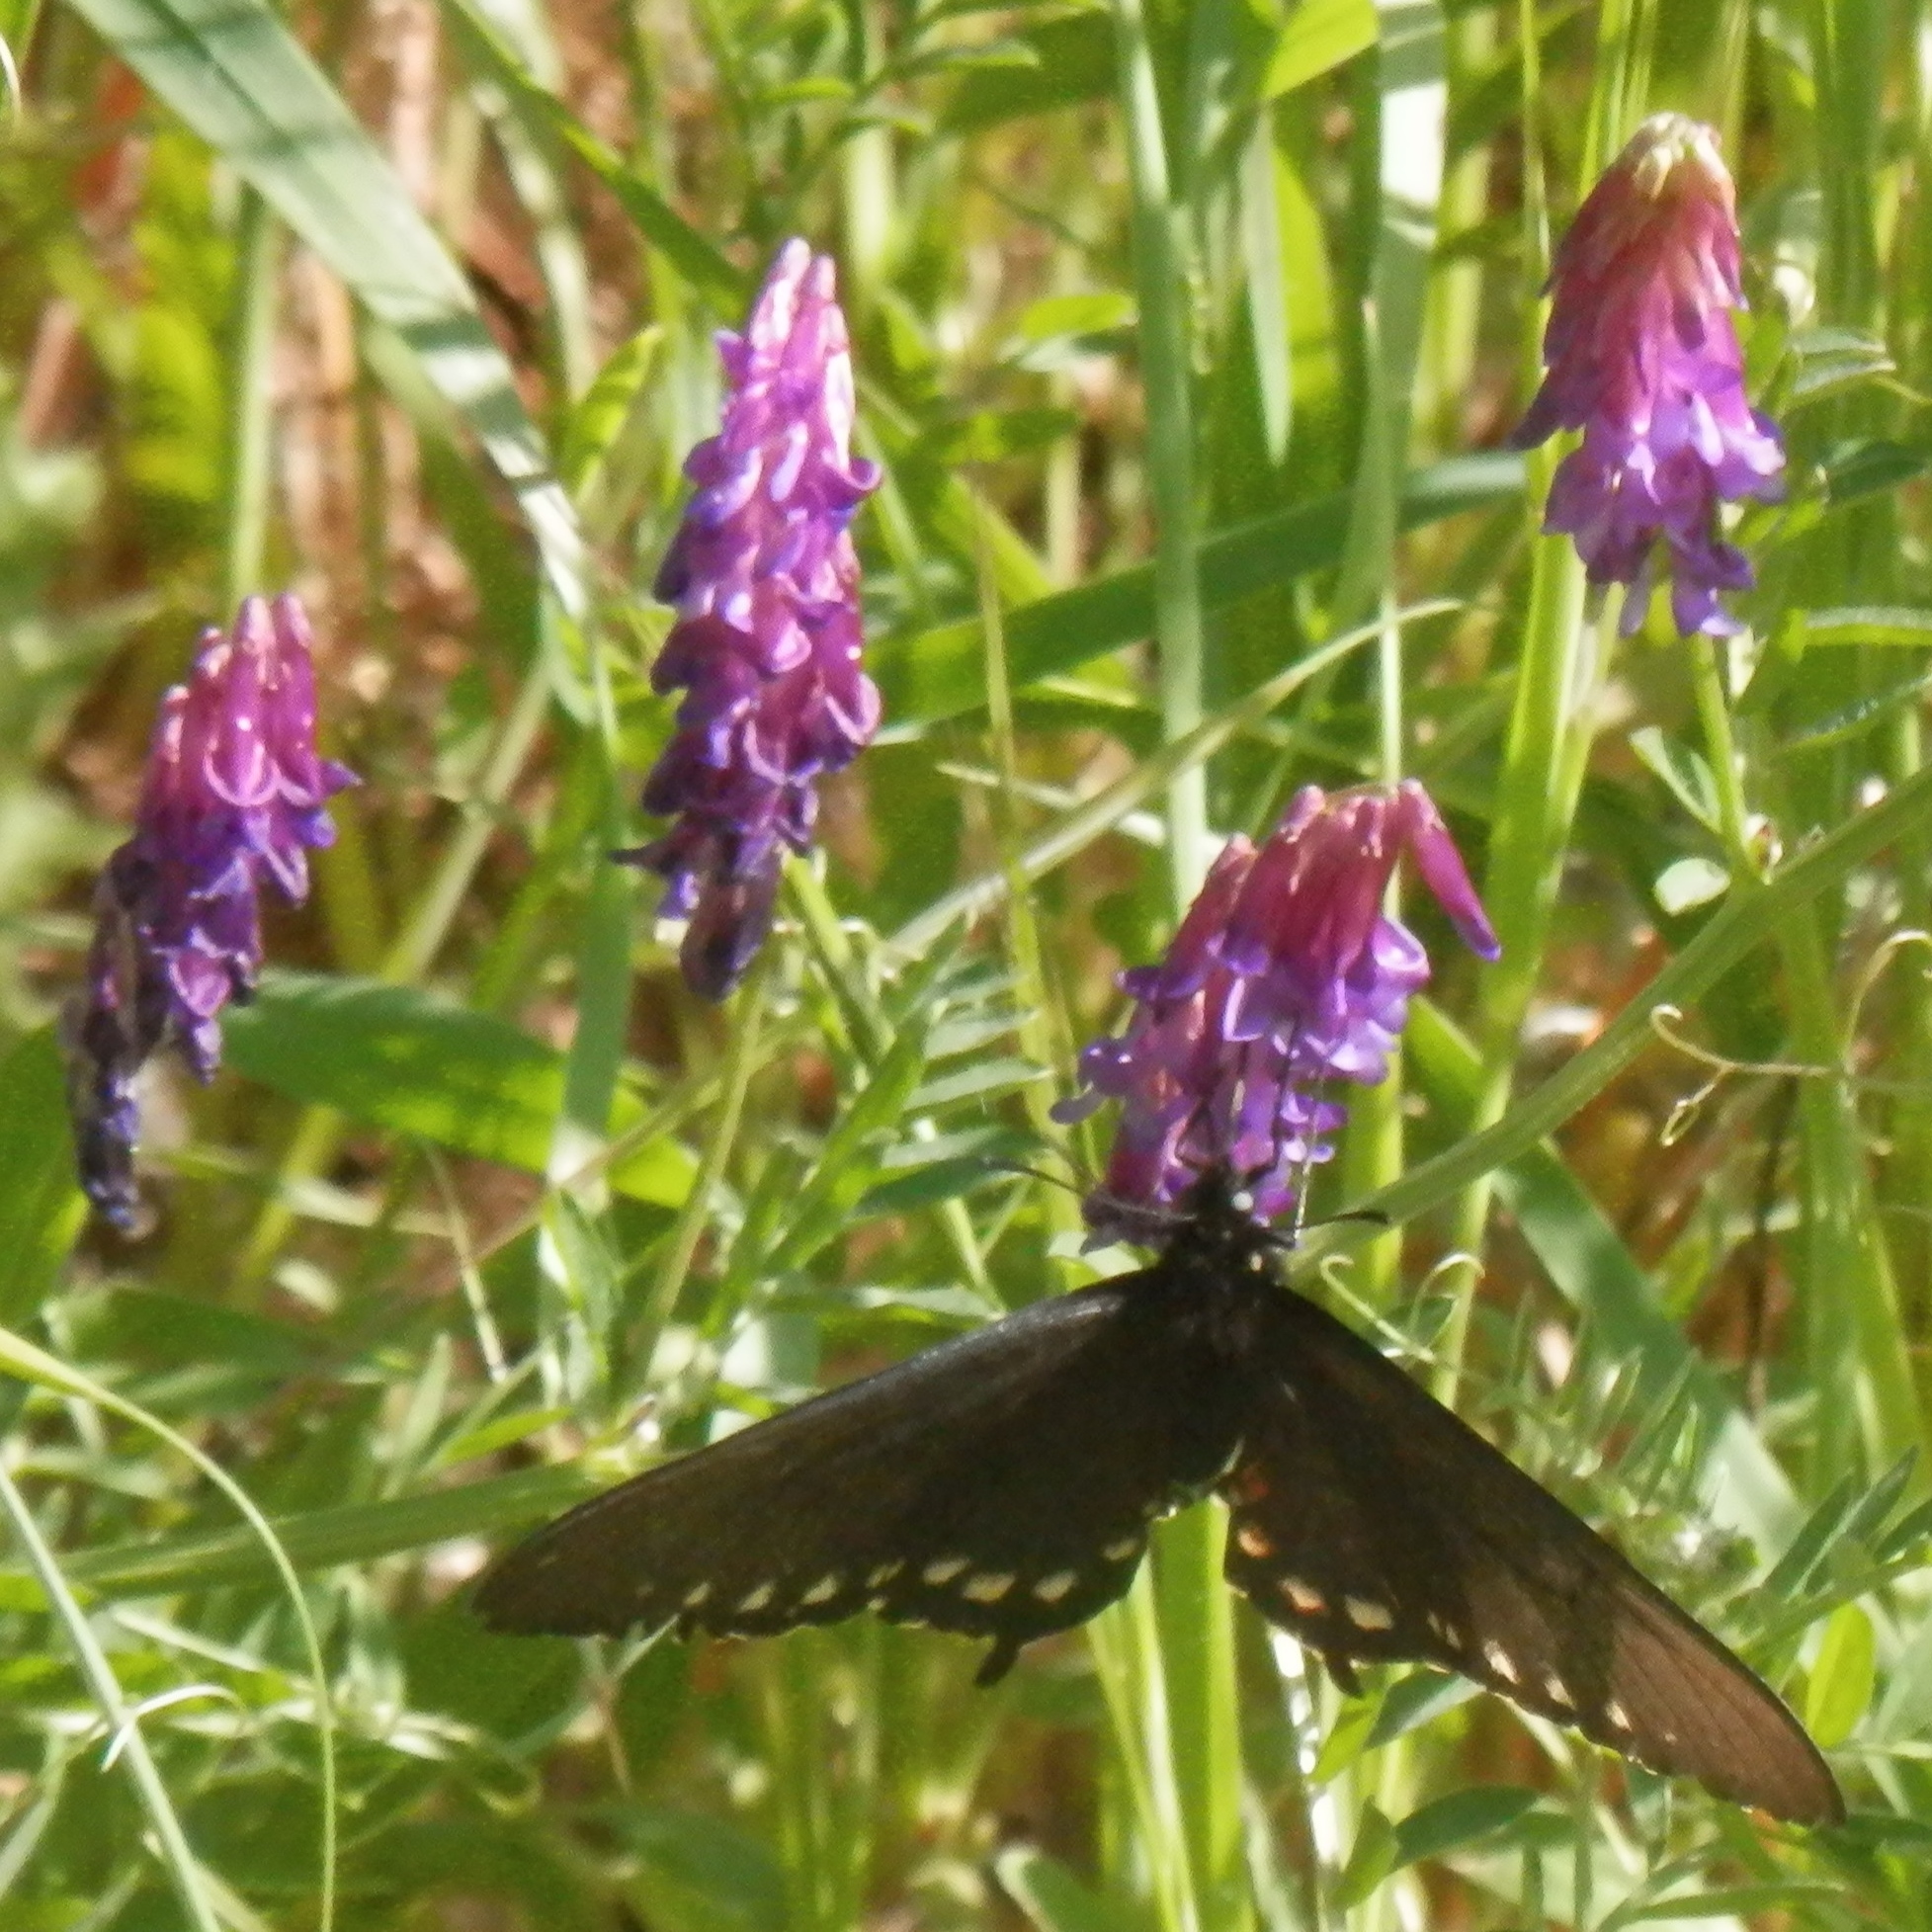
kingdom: Animalia
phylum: Arthropoda
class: Insecta
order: Lepidoptera
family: Papilionidae
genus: Battus
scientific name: Battus philenor
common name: Pipevine swallowtail
